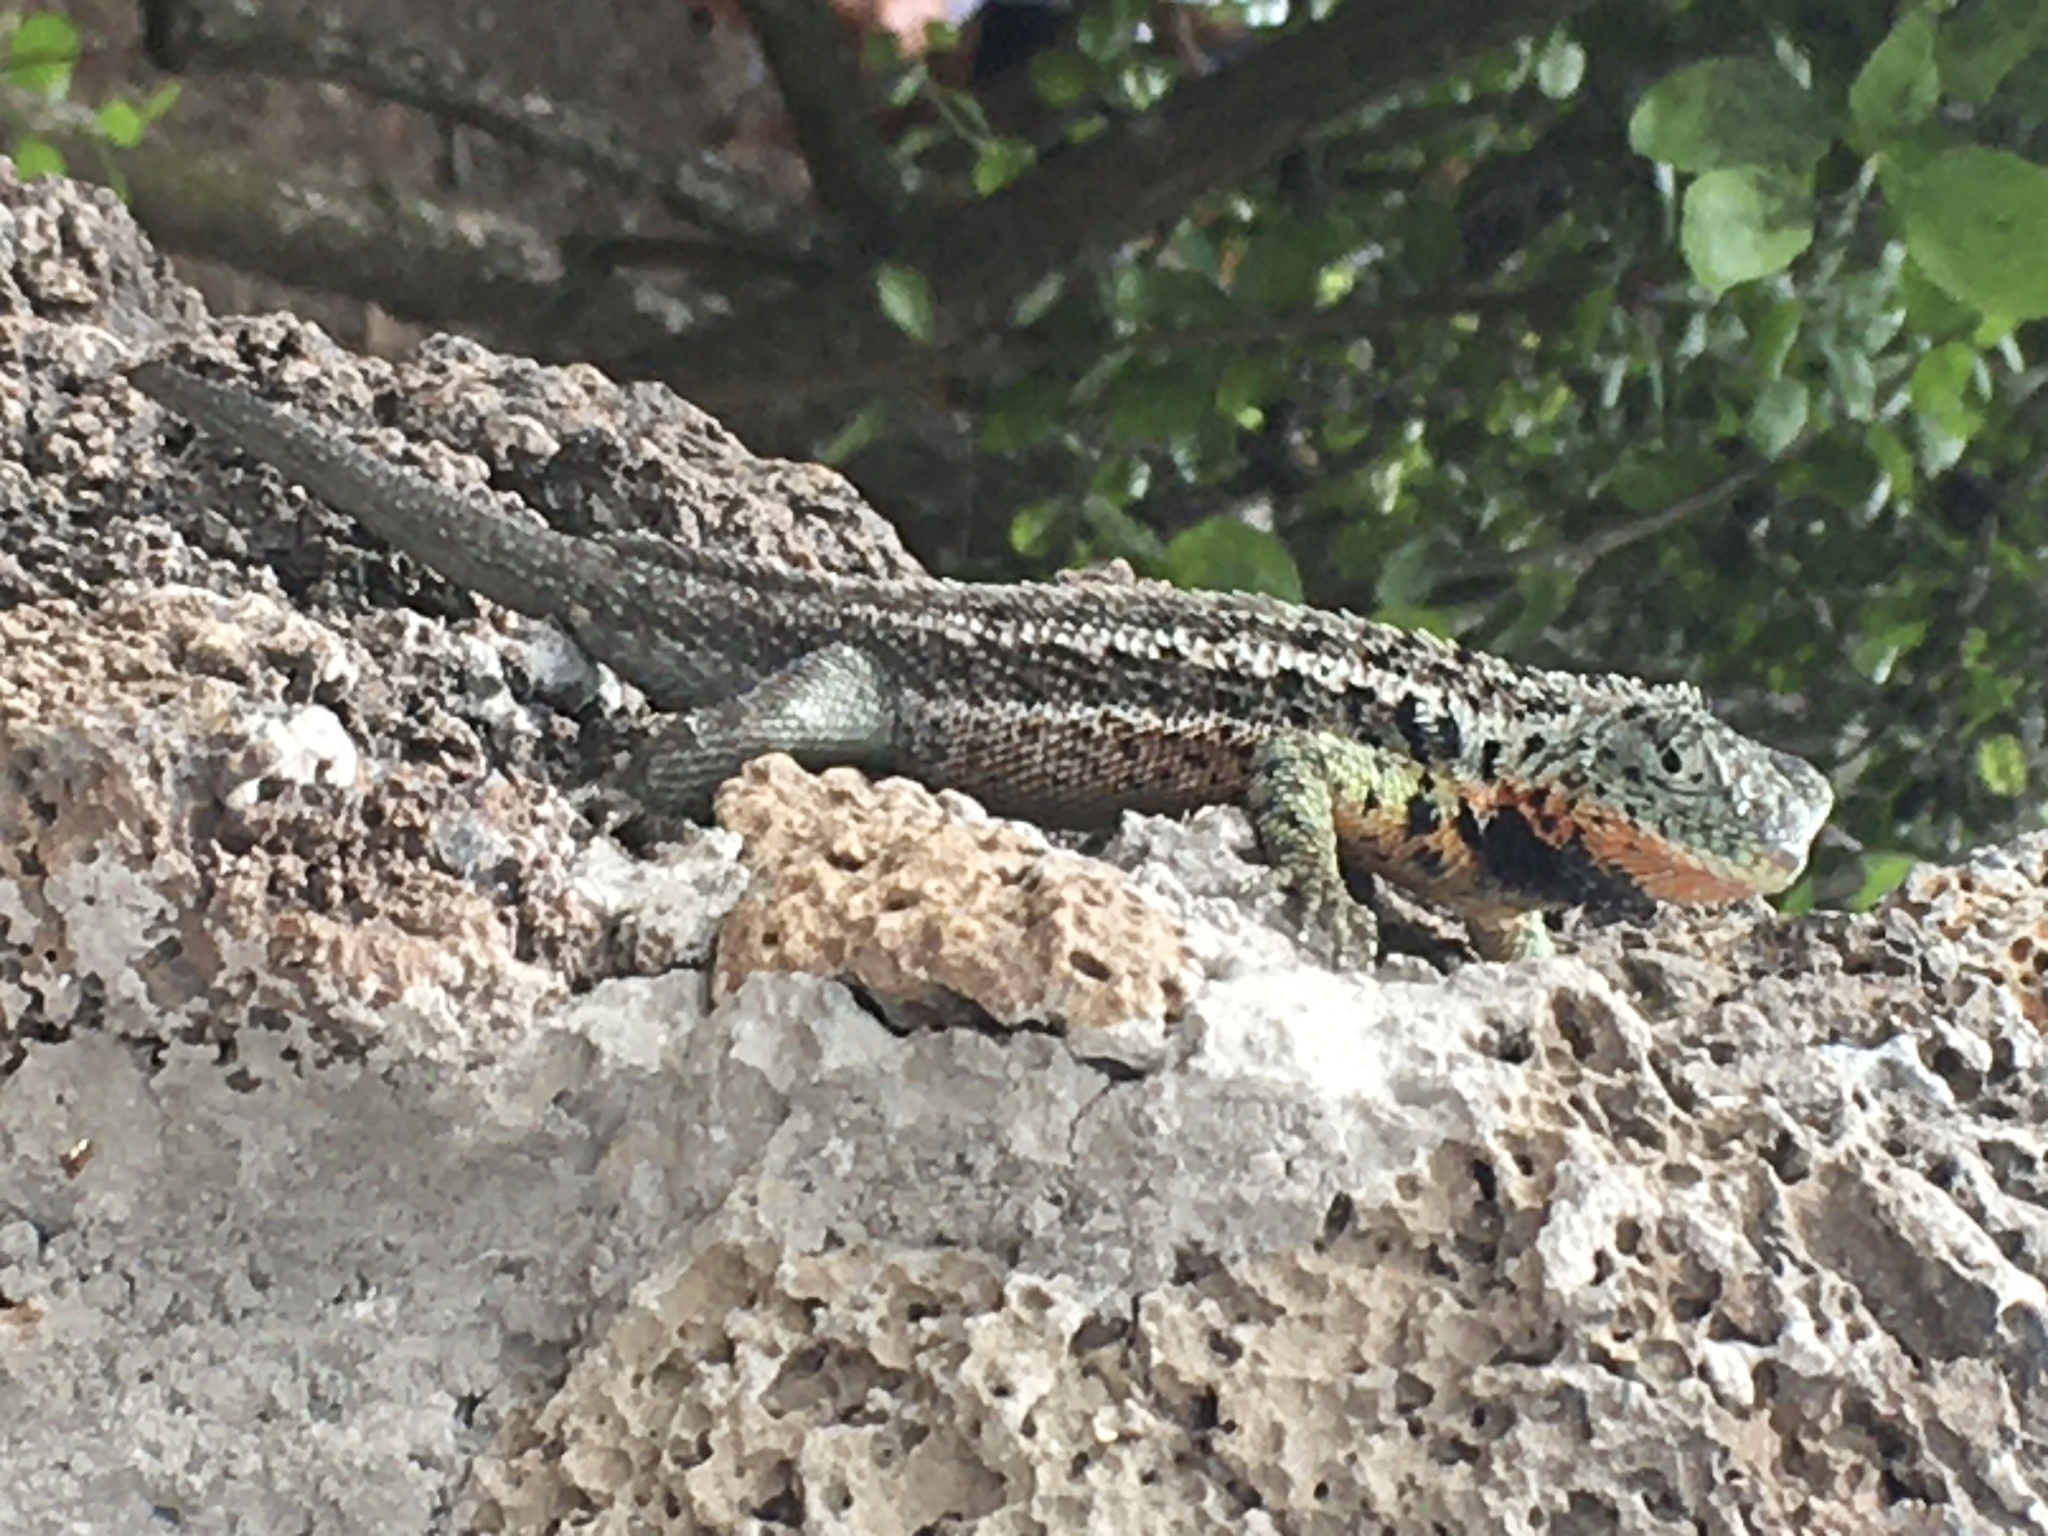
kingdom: Animalia
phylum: Chordata
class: Squamata
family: Tropiduridae
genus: Microlophus
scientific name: Microlophus indefatigabilis
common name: Galapagos lava lizard
